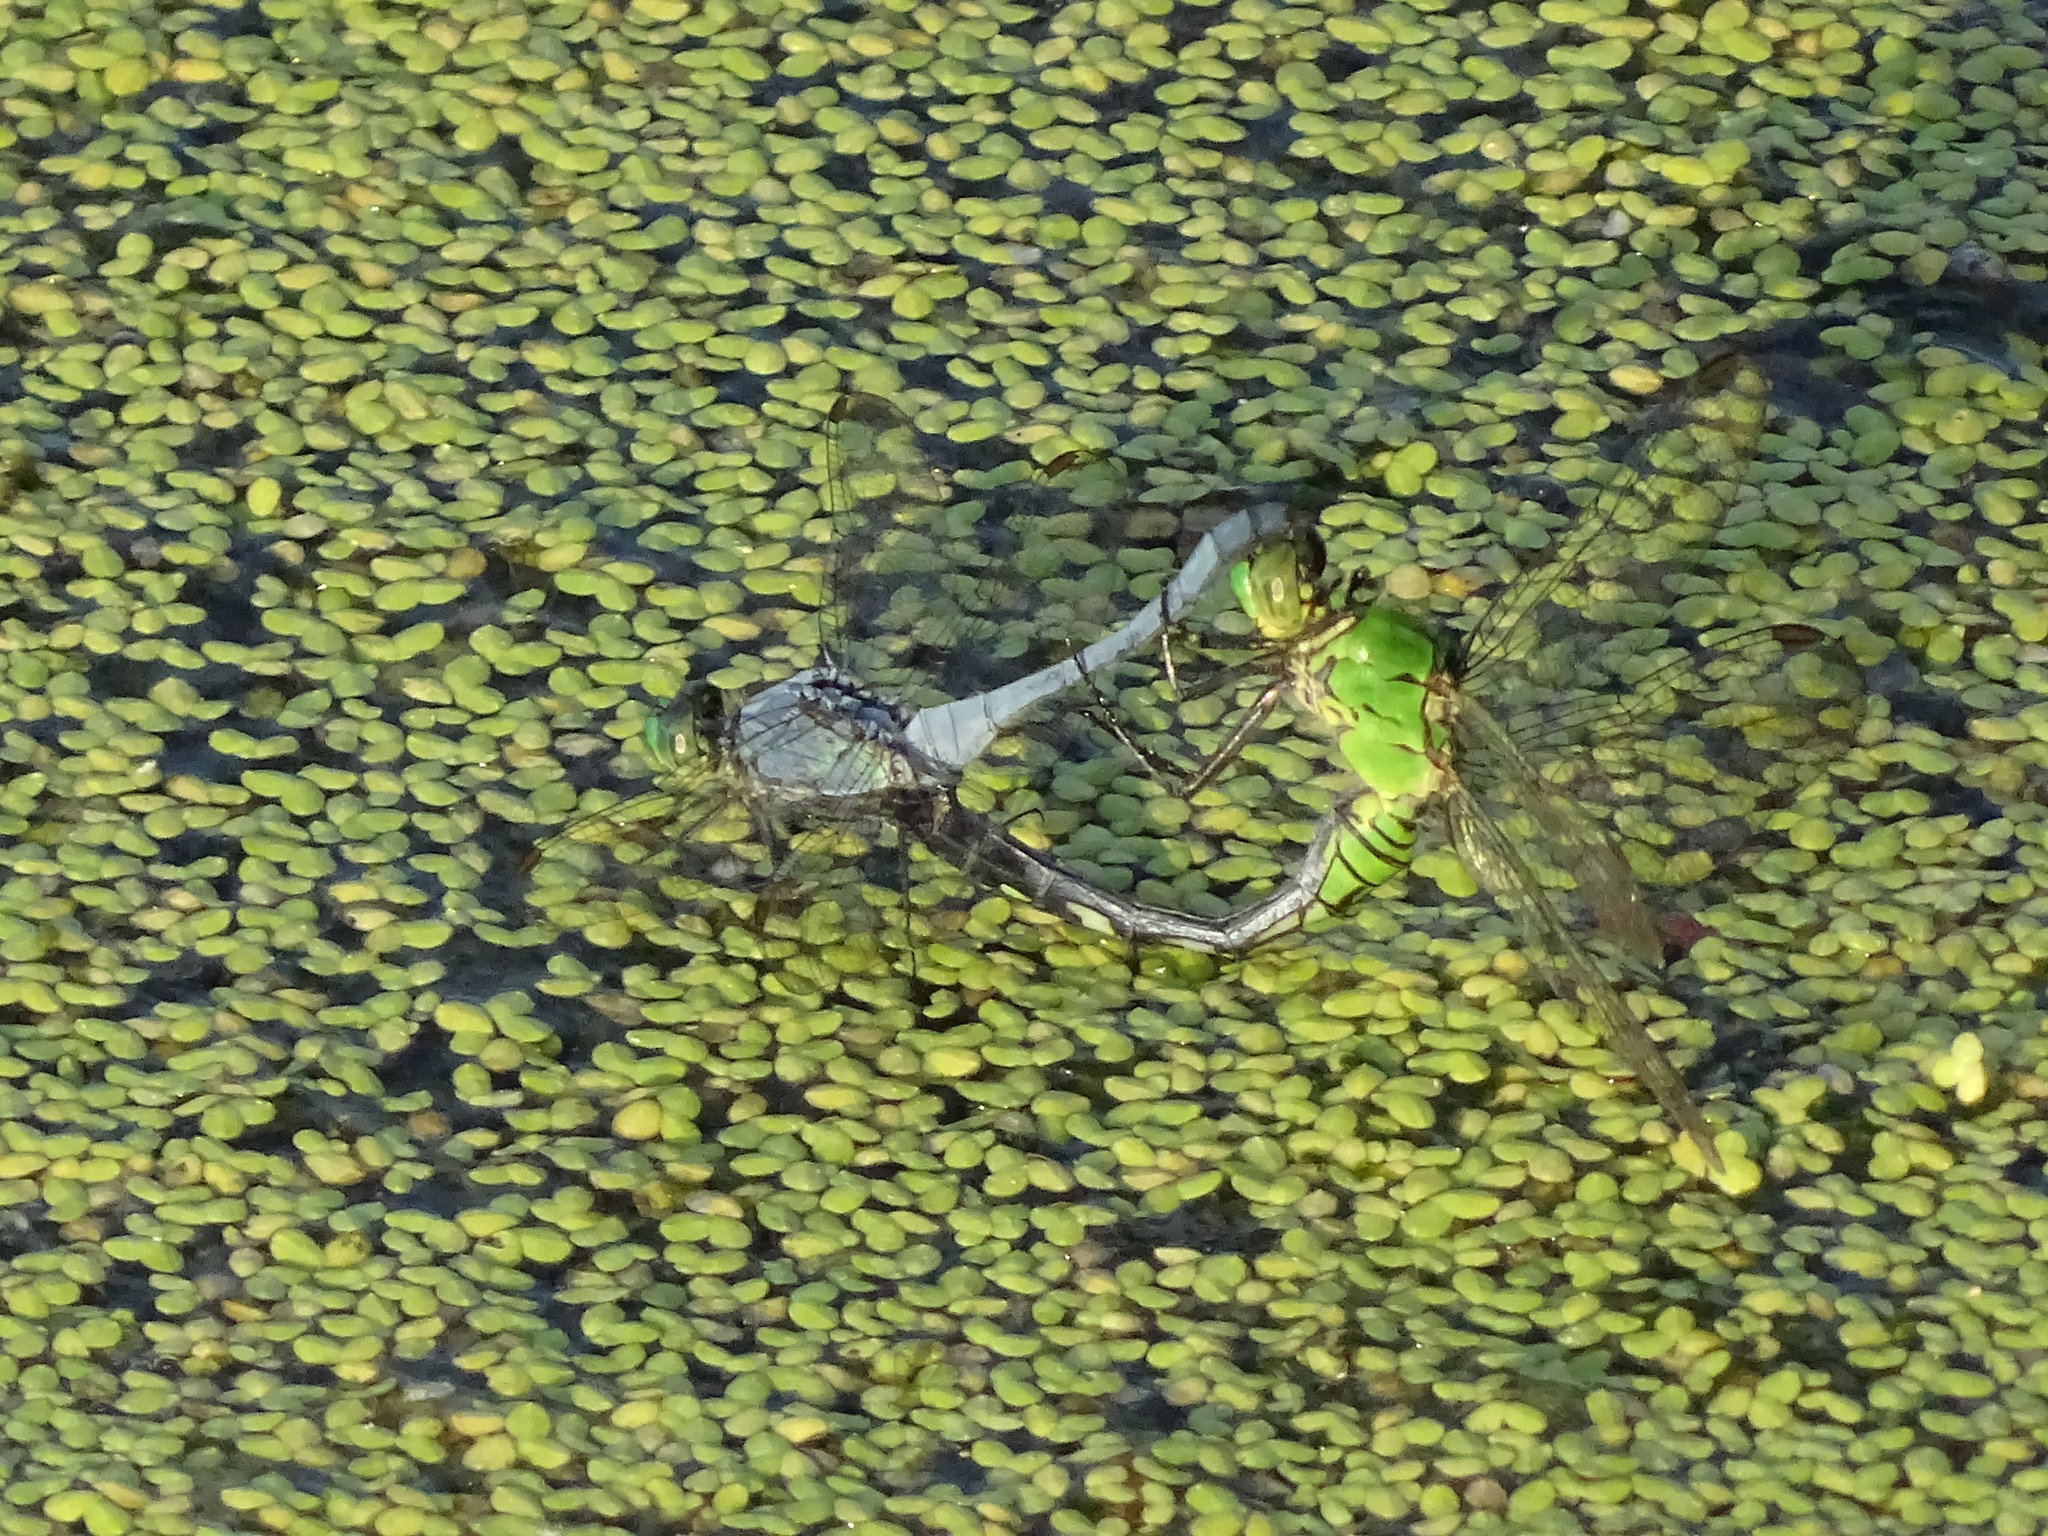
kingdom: Animalia
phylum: Arthropoda
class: Insecta
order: Odonata
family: Libellulidae
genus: Erythemis
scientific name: Erythemis simplicicollis
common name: Eastern pondhawk
